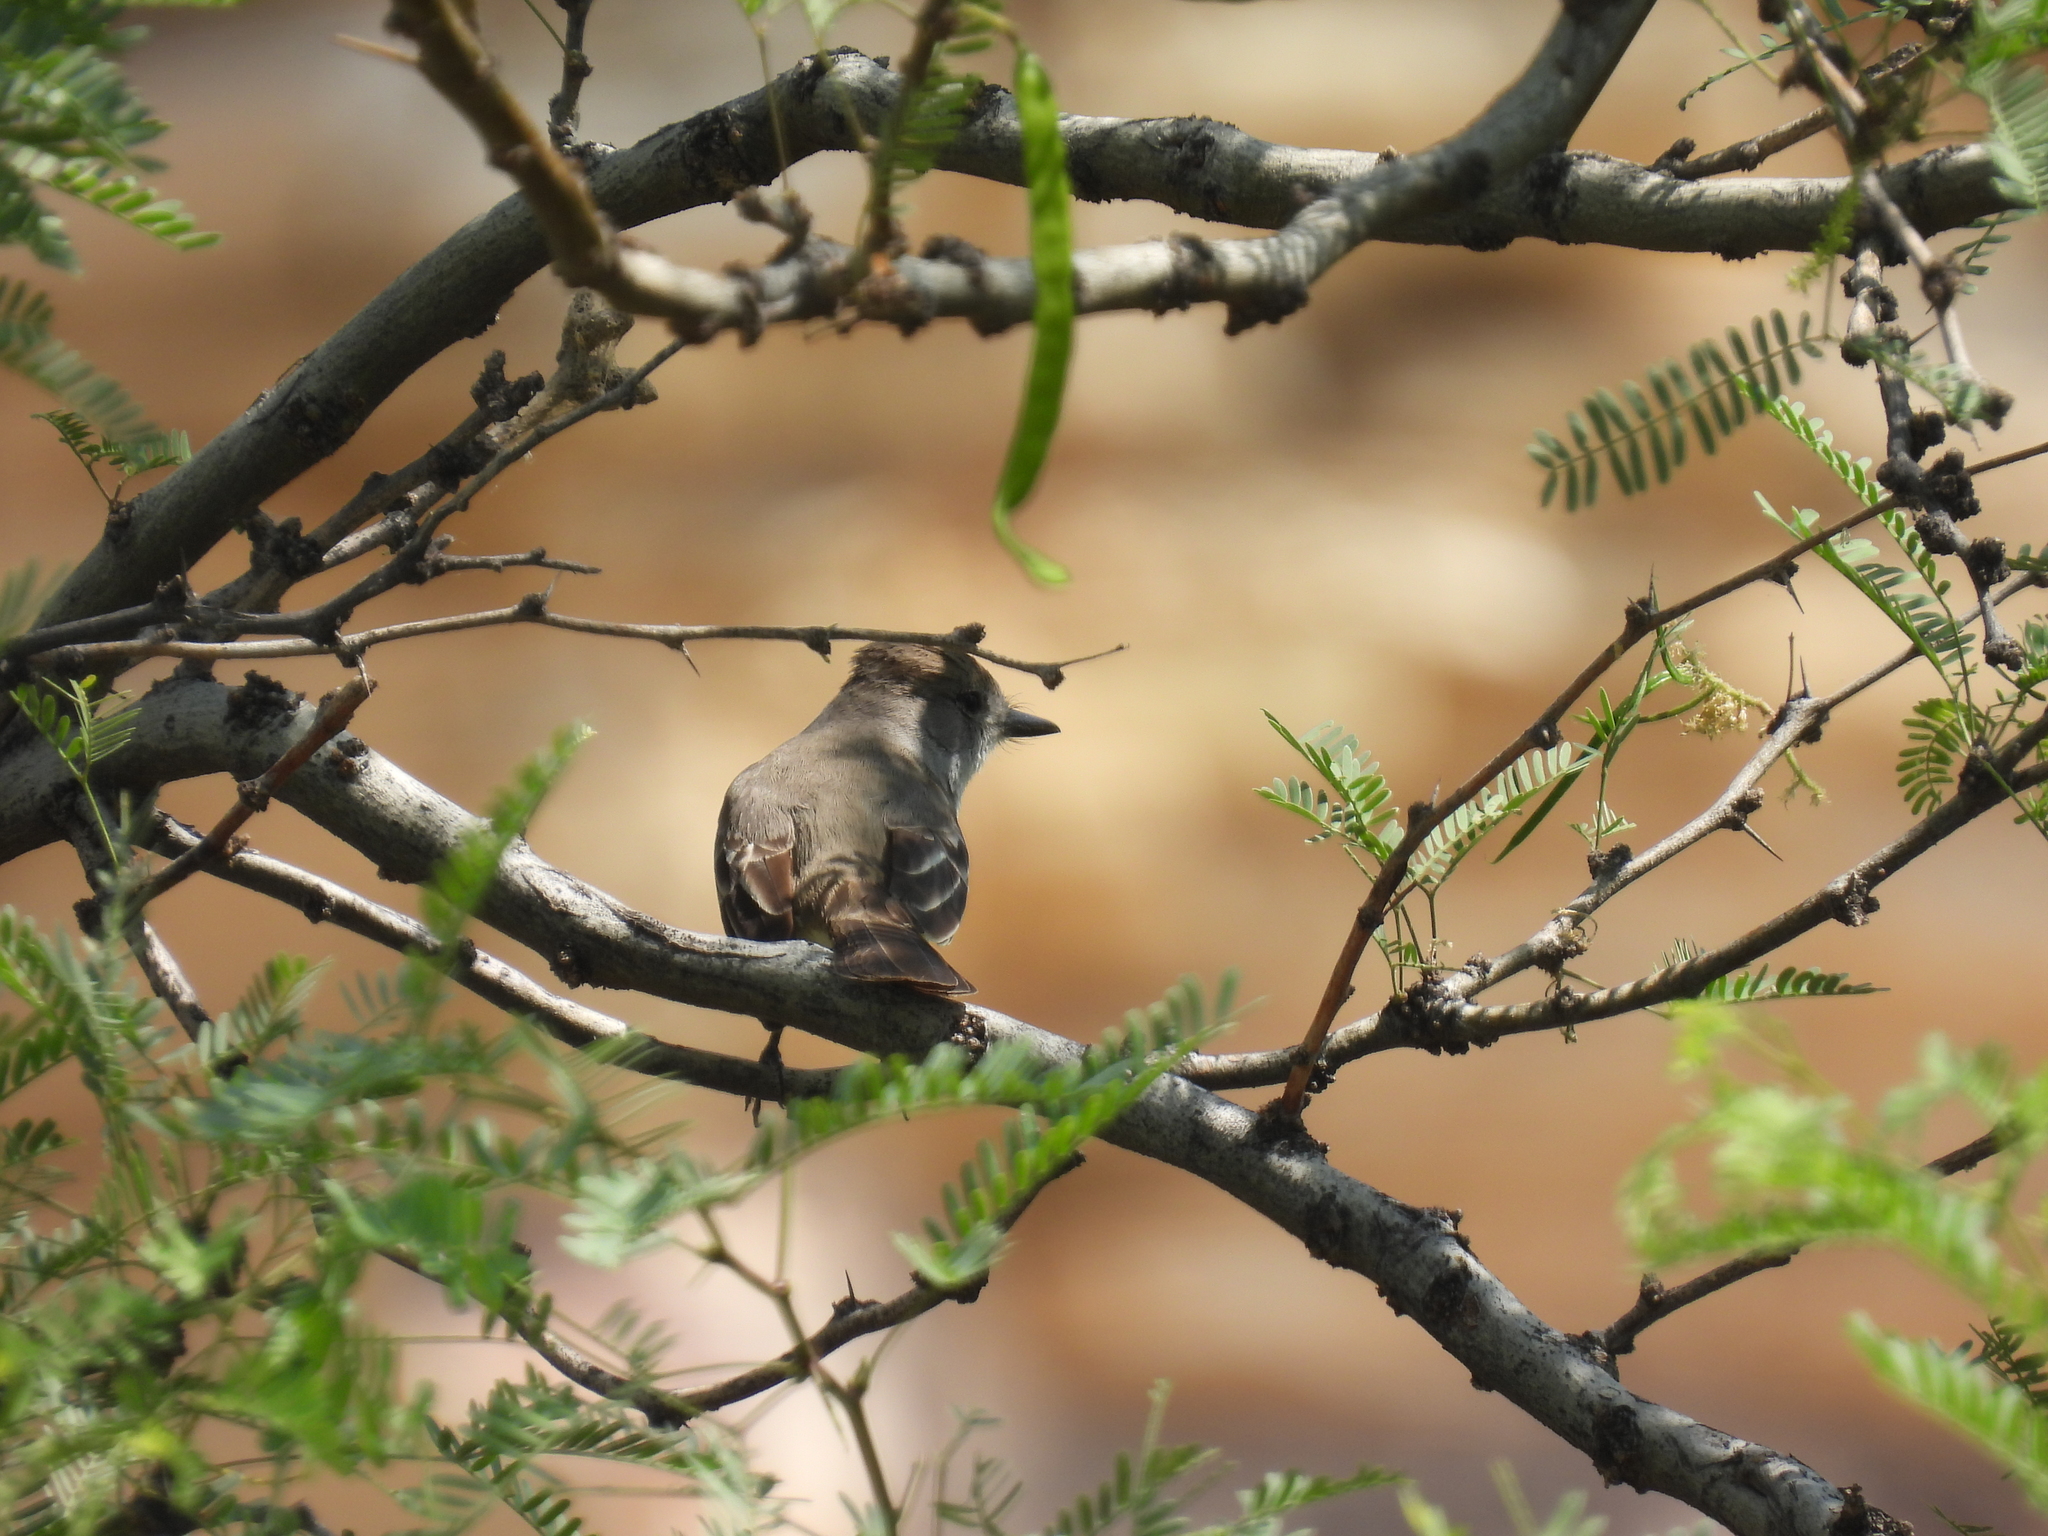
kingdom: Animalia
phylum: Chordata
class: Aves
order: Passeriformes
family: Tyrannidae
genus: Myiarchus
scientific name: Myiarchus cinerascens
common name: Ash-throated flycatcher
